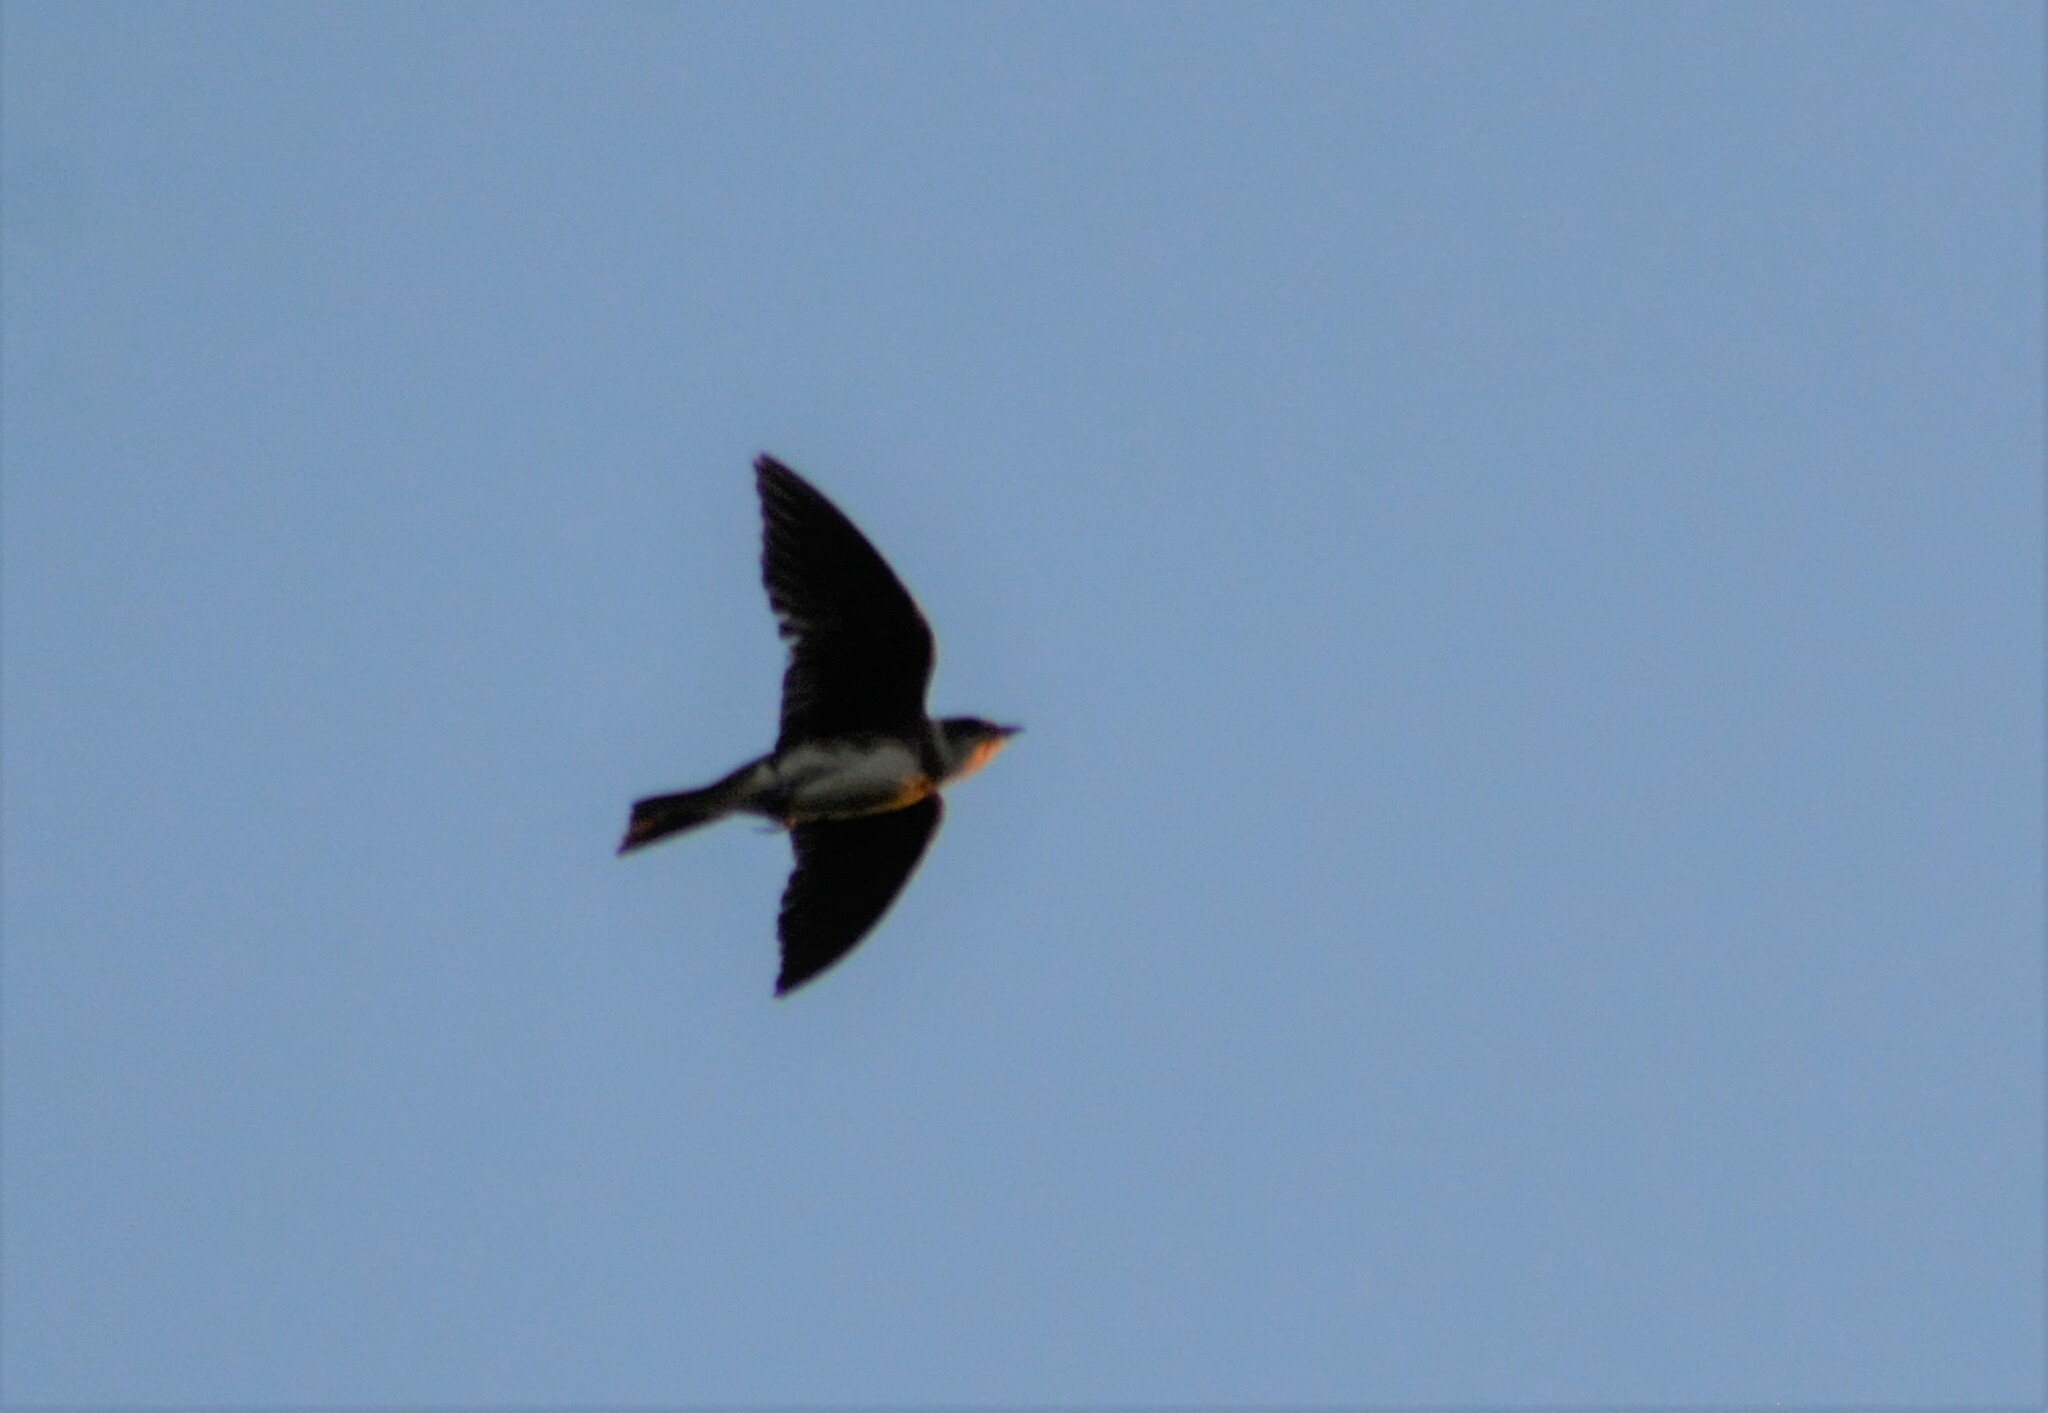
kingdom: Animalia
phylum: Chordata
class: Aves
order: Passeriformes
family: Hirundinidae
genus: Progne
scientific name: Progne tapera
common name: Brown-chested martin
